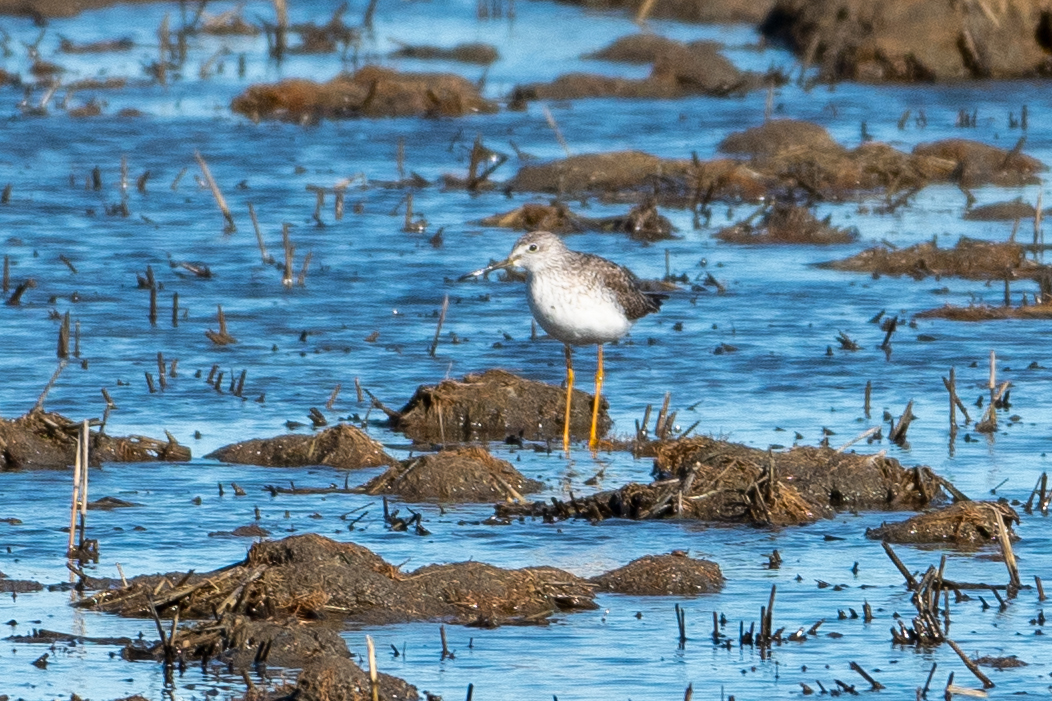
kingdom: Animalia
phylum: Chordata
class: Aves
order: Charadriiformes
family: Scolopacidae
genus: Tringa
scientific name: Tringa melanoleuca
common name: Greater yellowlegs
